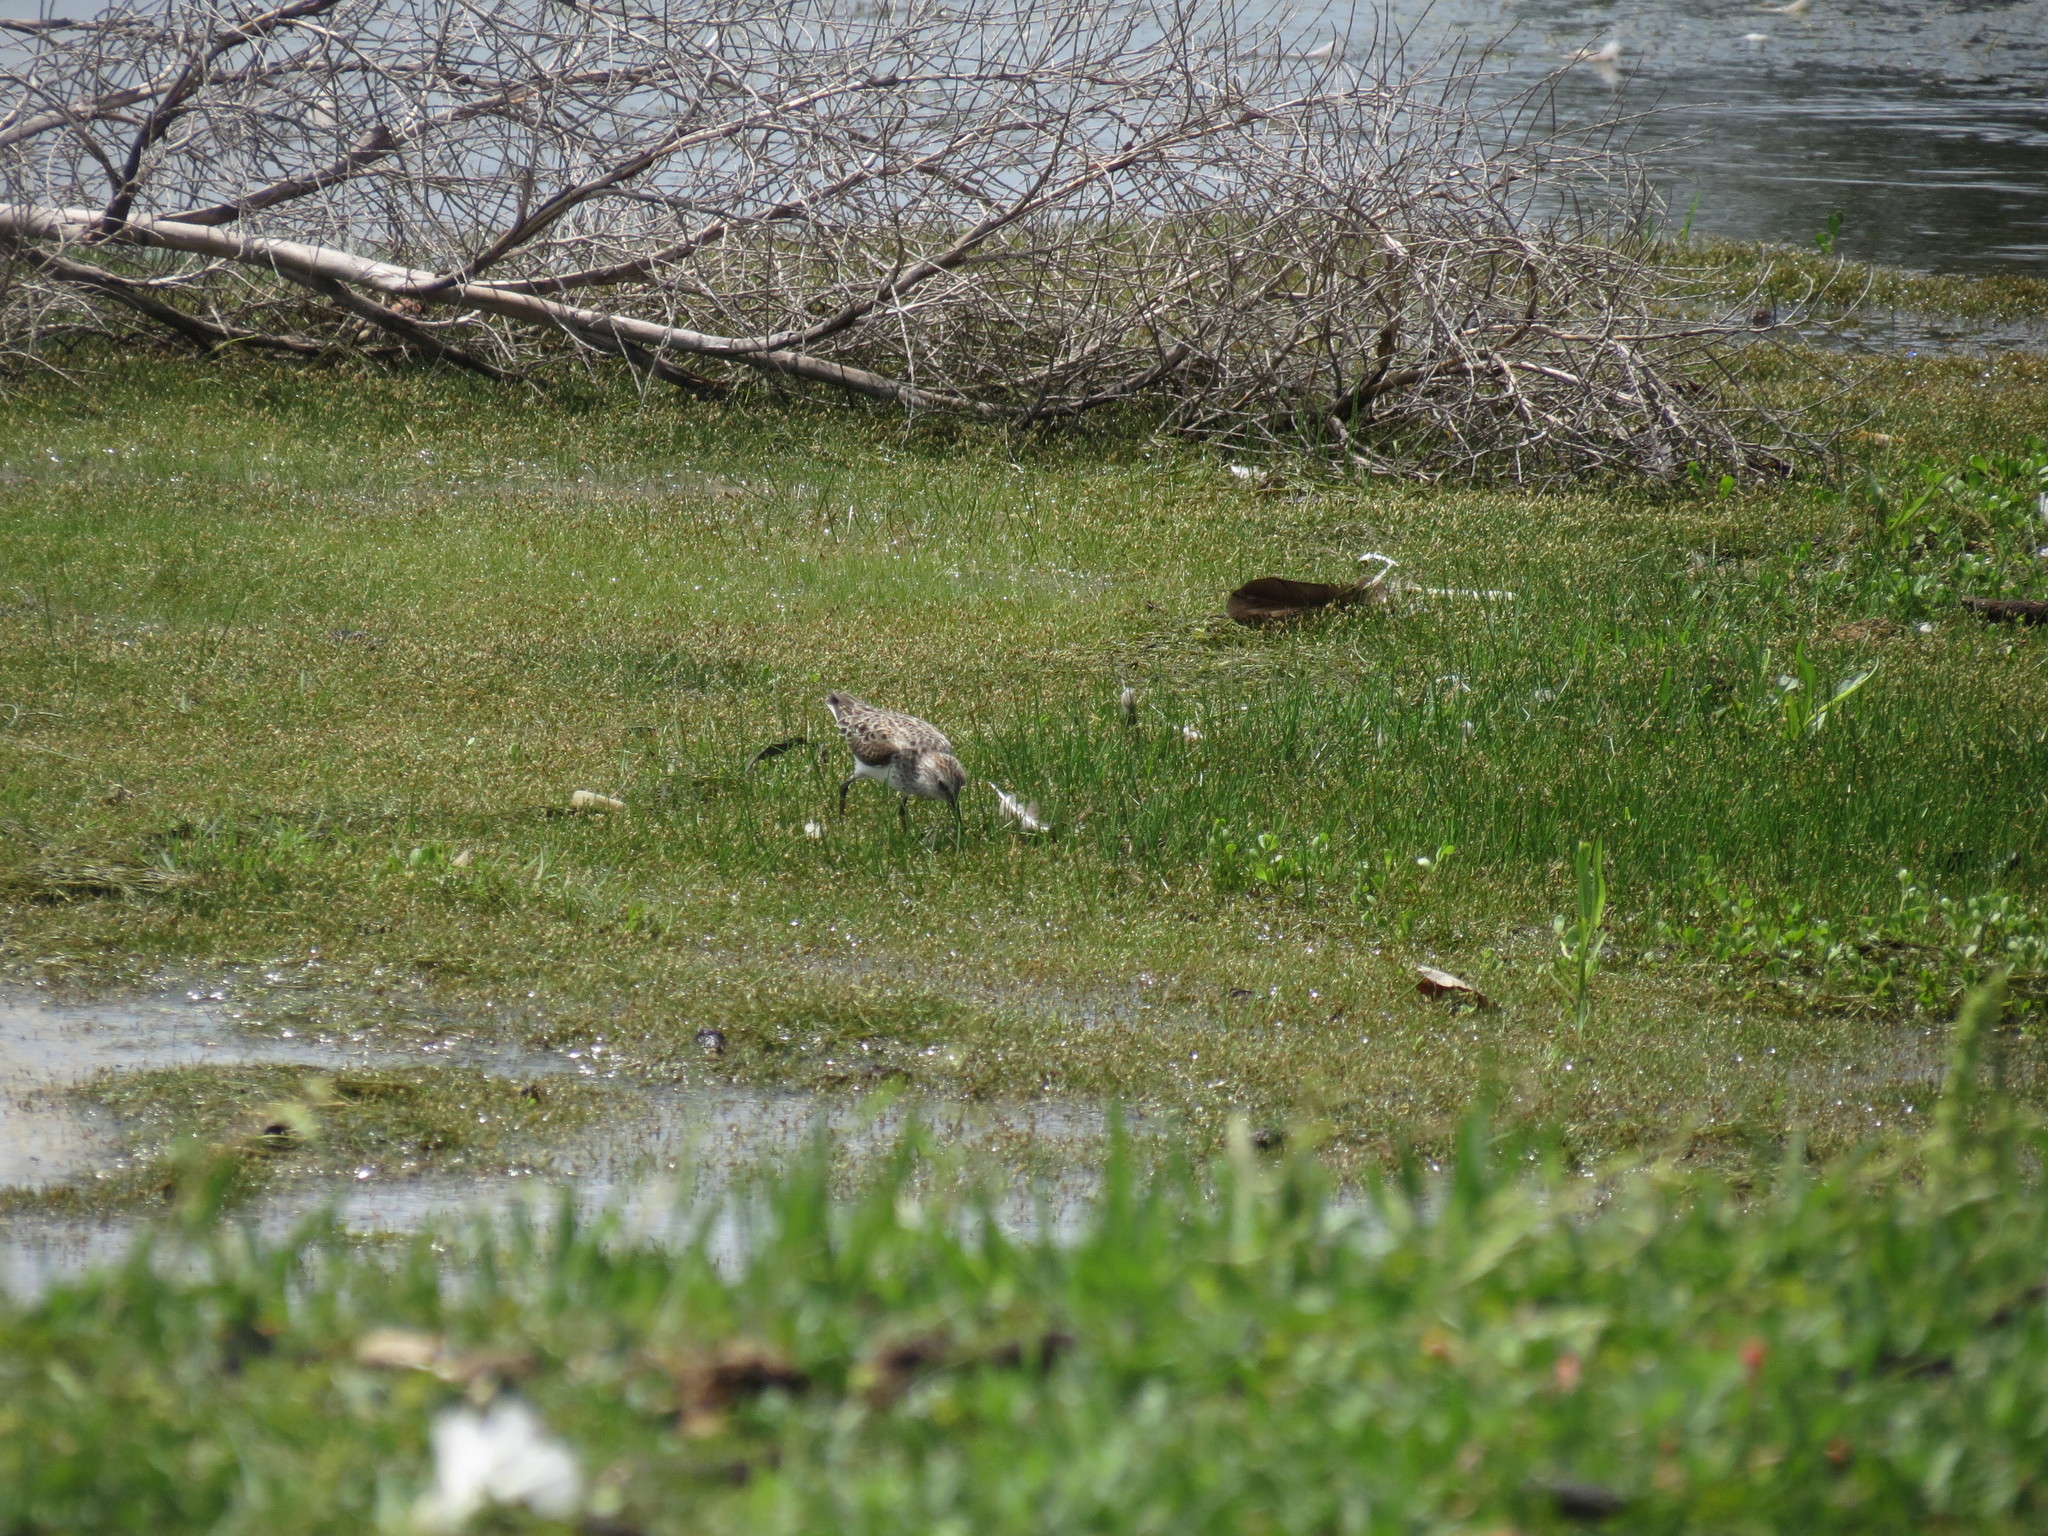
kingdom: Animalia
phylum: Chordata
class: Aves
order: Charadriiformes
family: Scolopacidae
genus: Calidris
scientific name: Calidris pusilla
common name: Semipalmated sandpiper
